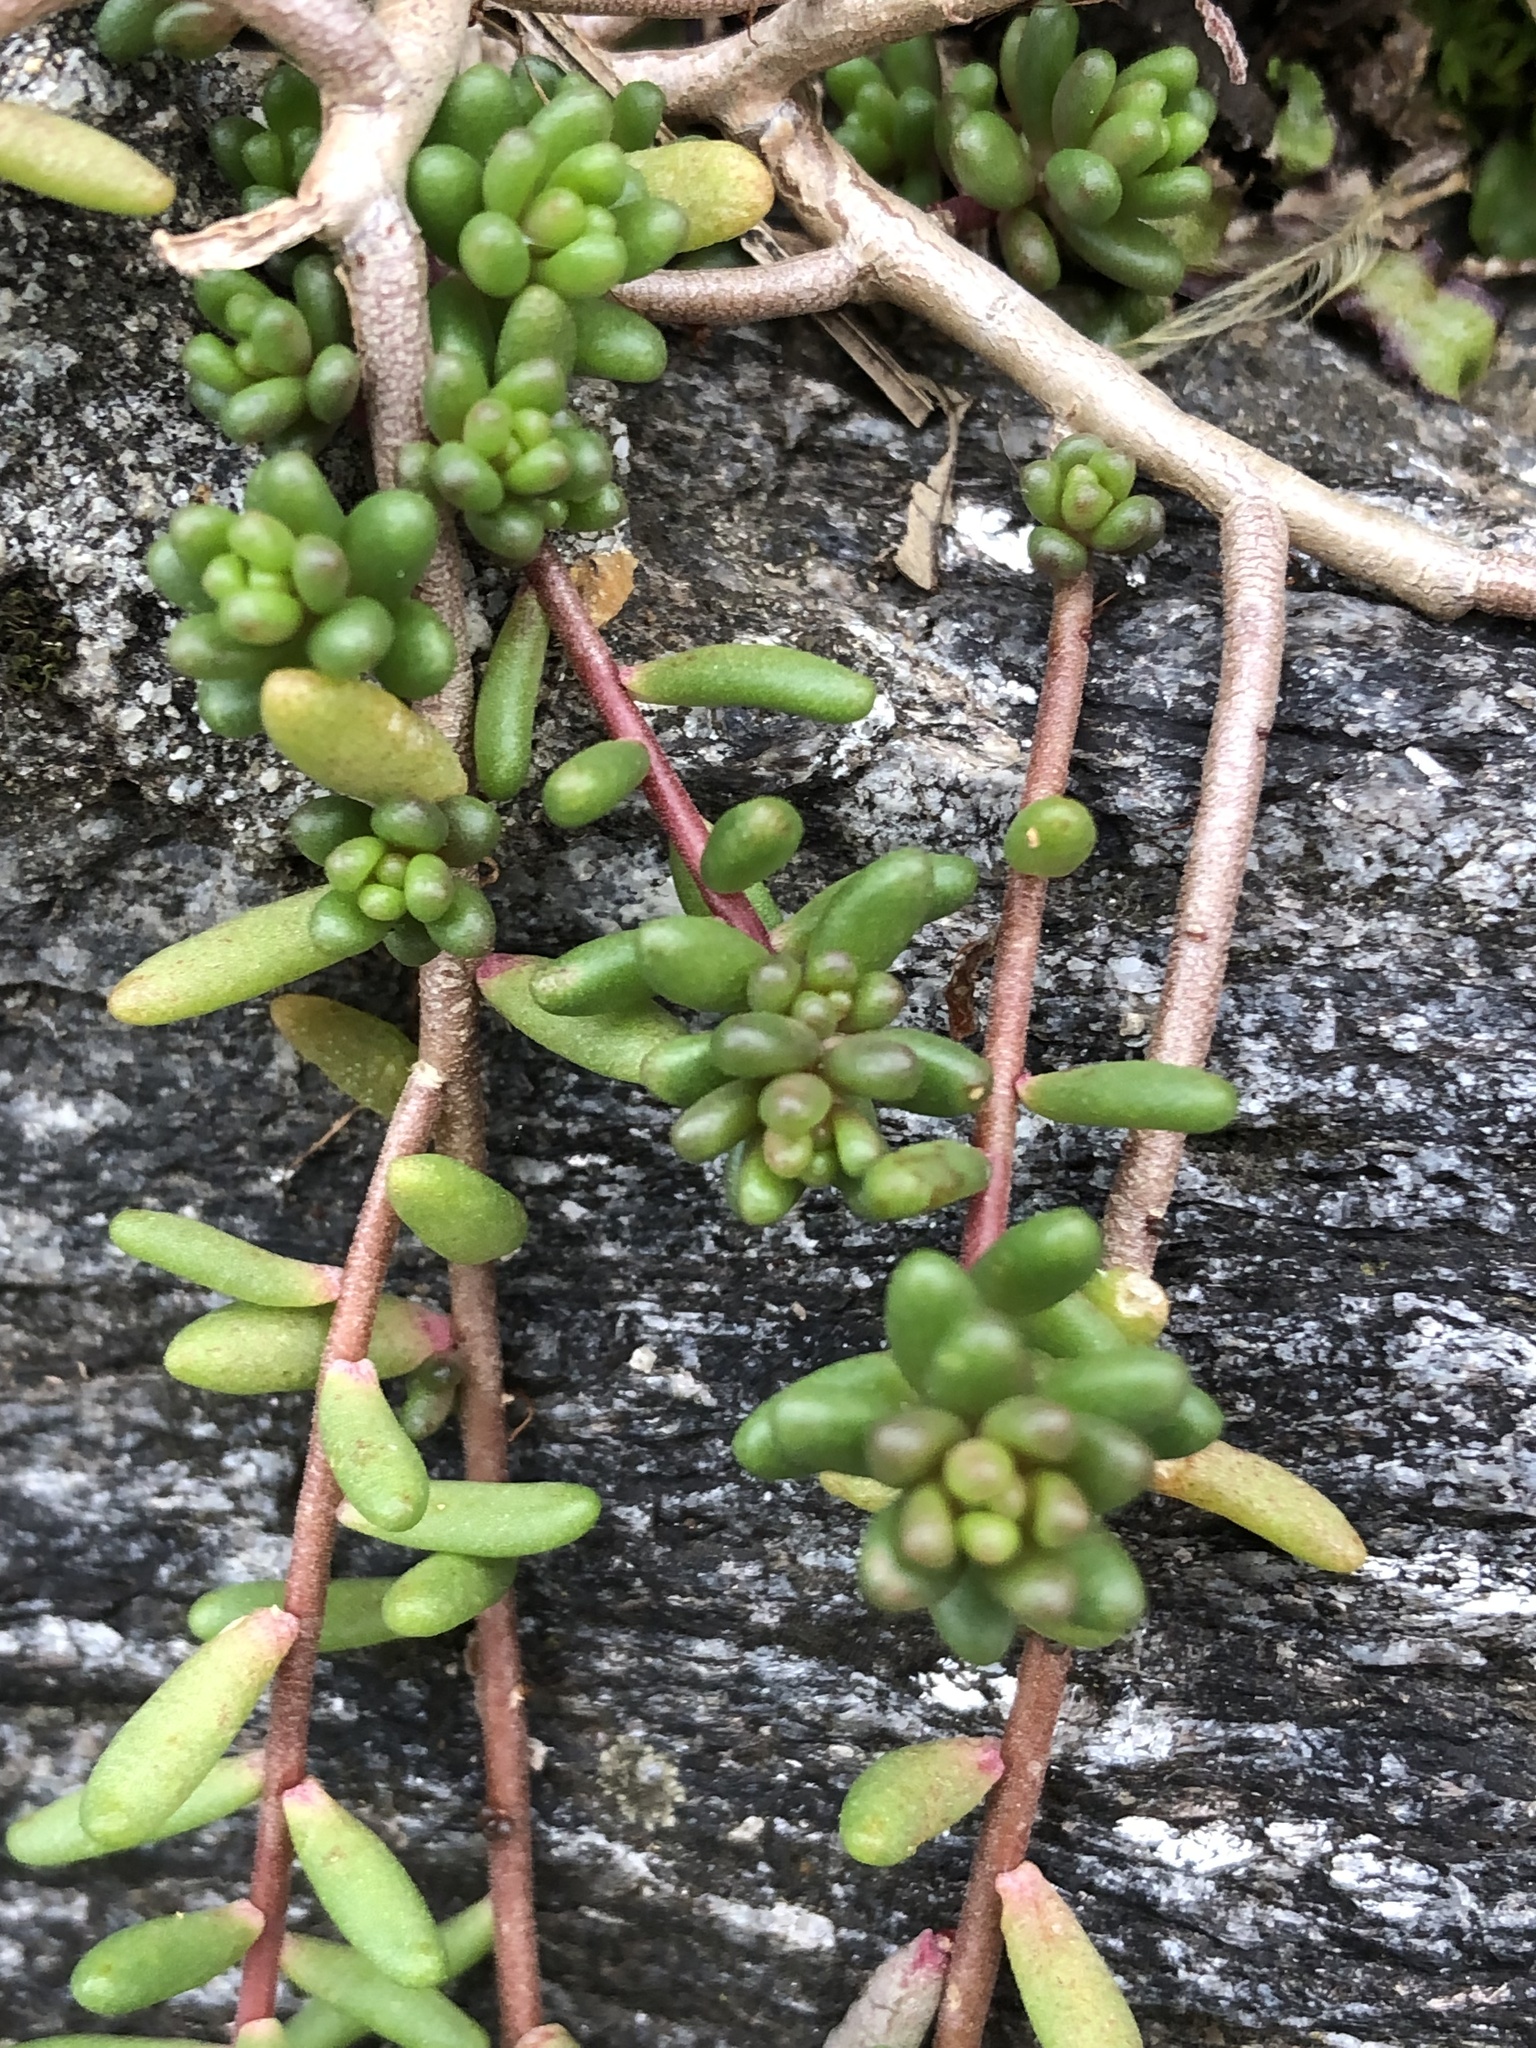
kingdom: Plantae
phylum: Tracheophyta
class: Magnoliopsida
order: Saxifragales
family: Crassulaceae
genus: Sedum
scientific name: Sedum album
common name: White stonecrop
